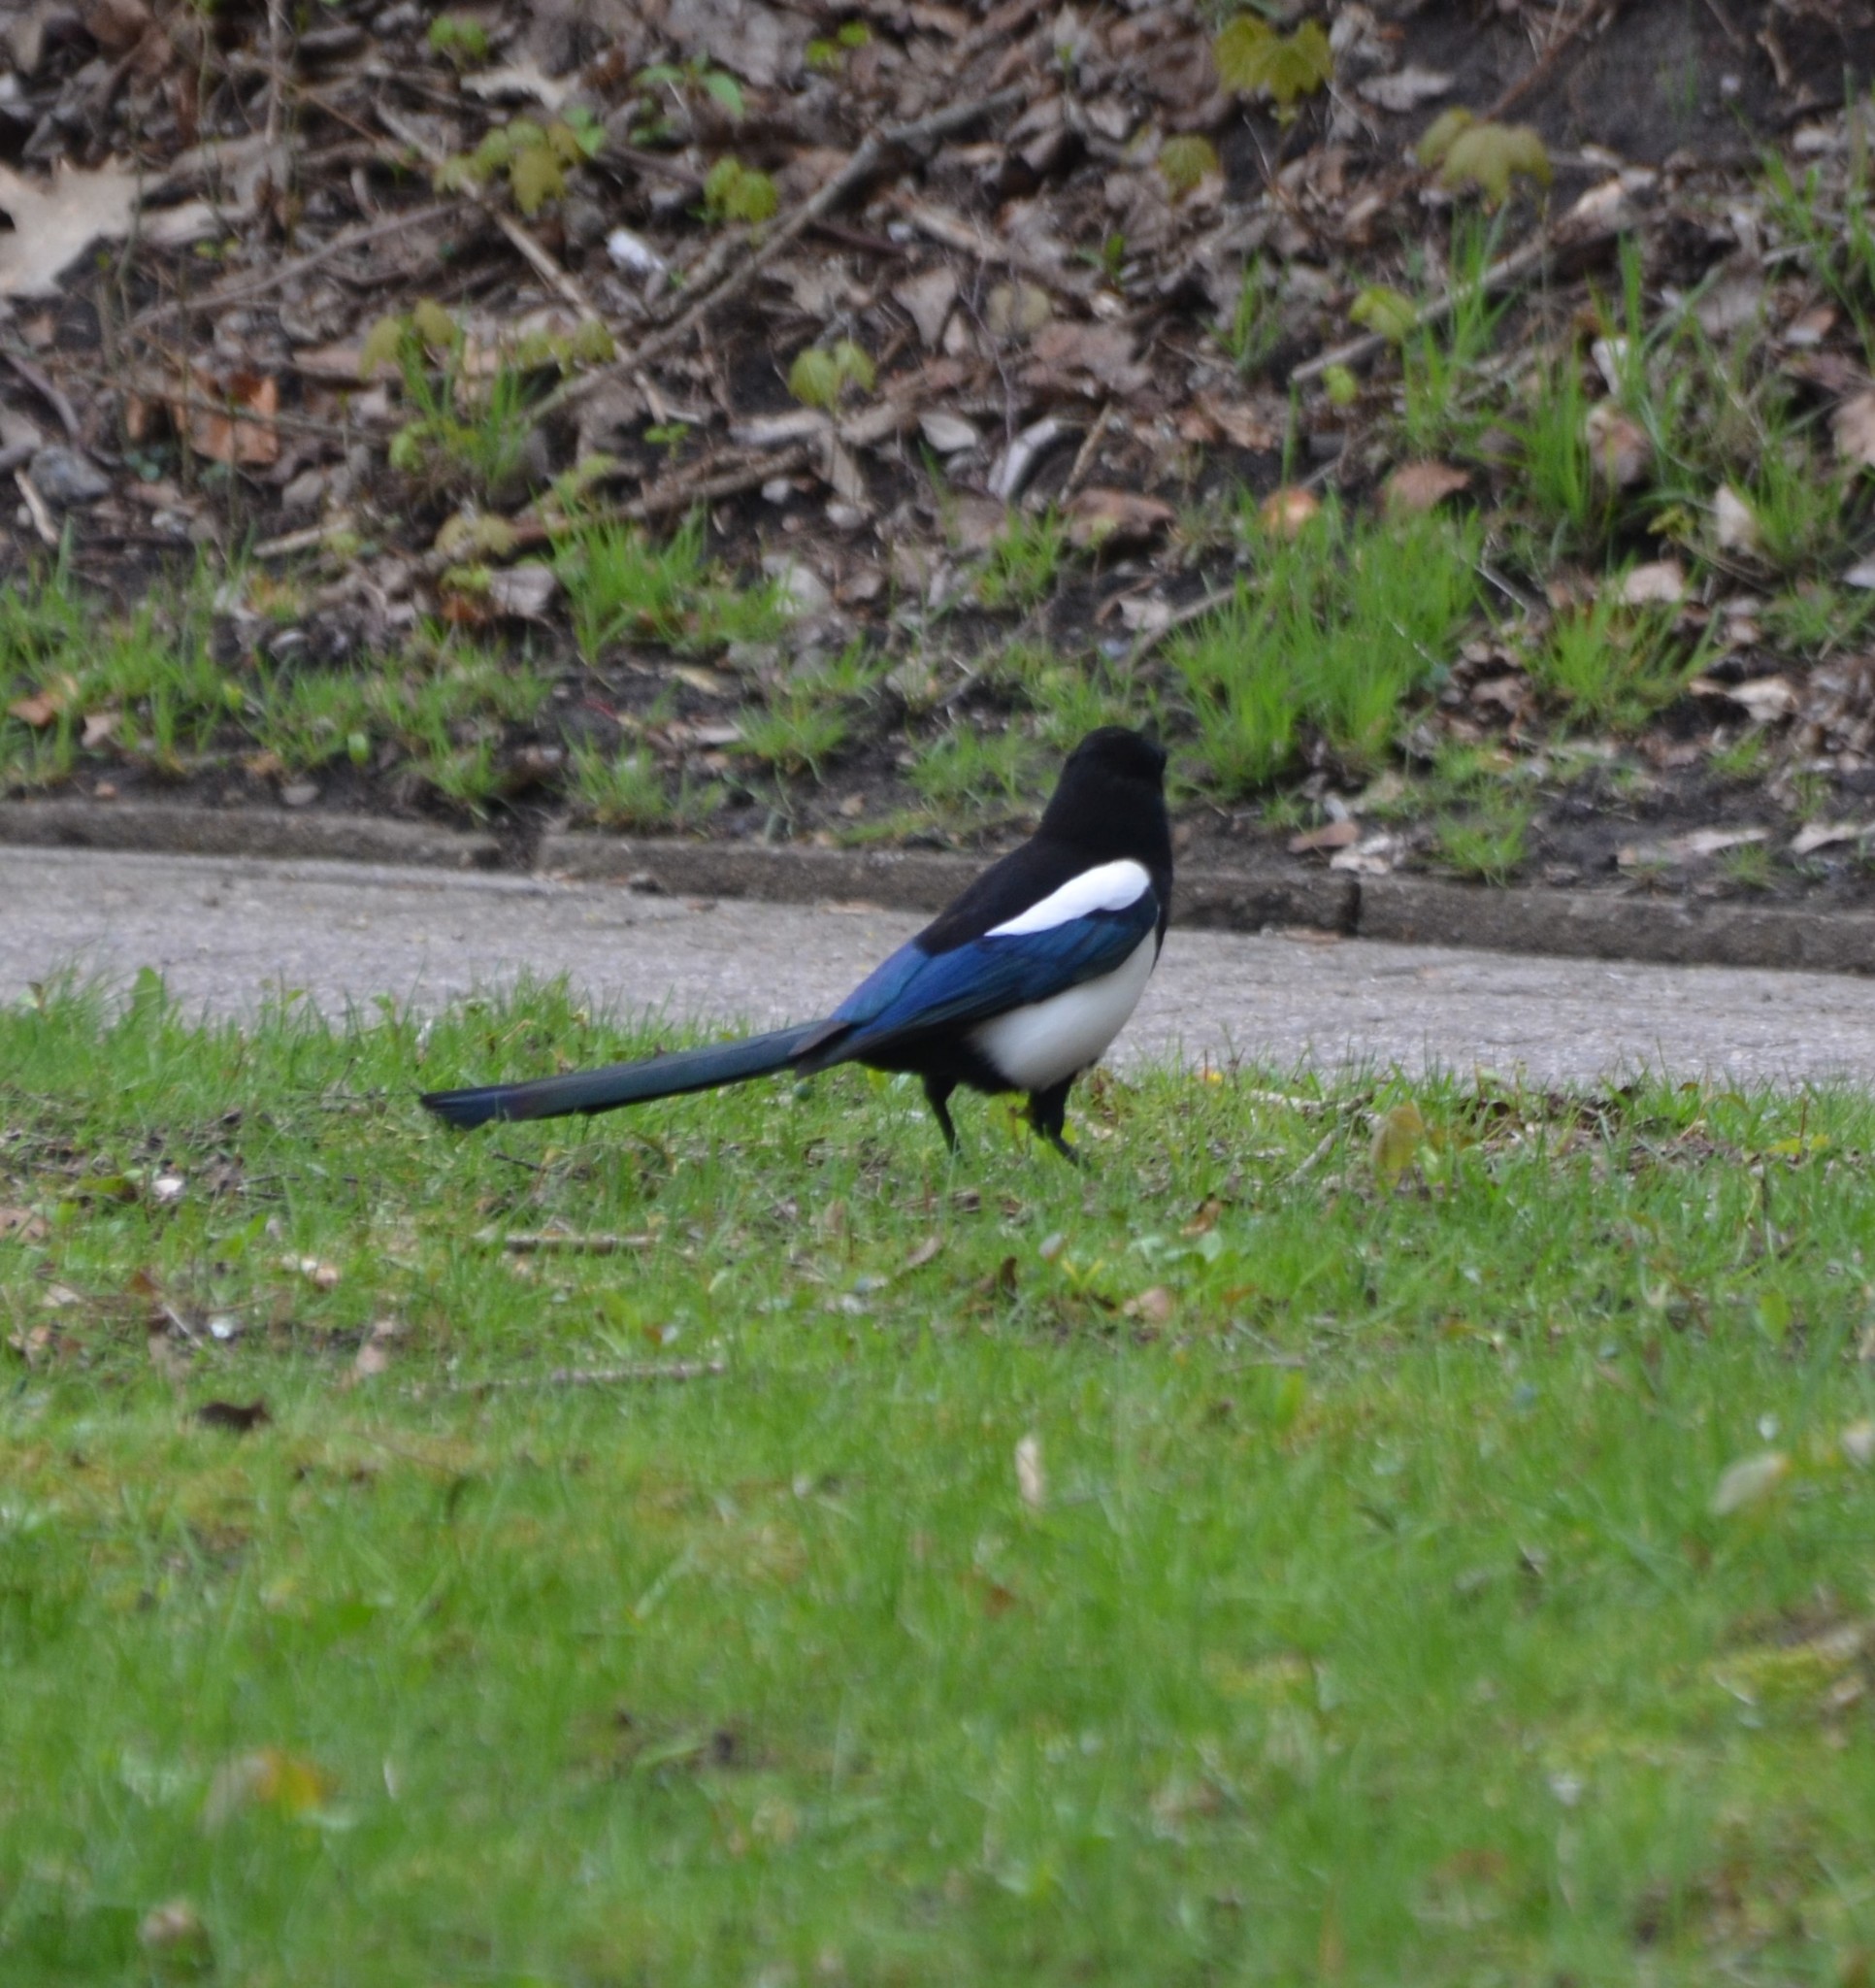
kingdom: Animalia
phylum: Chordata
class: Aves
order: Passeriformes
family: Corvidae
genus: Pica
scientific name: Pica pica
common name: Eurasian magpie
